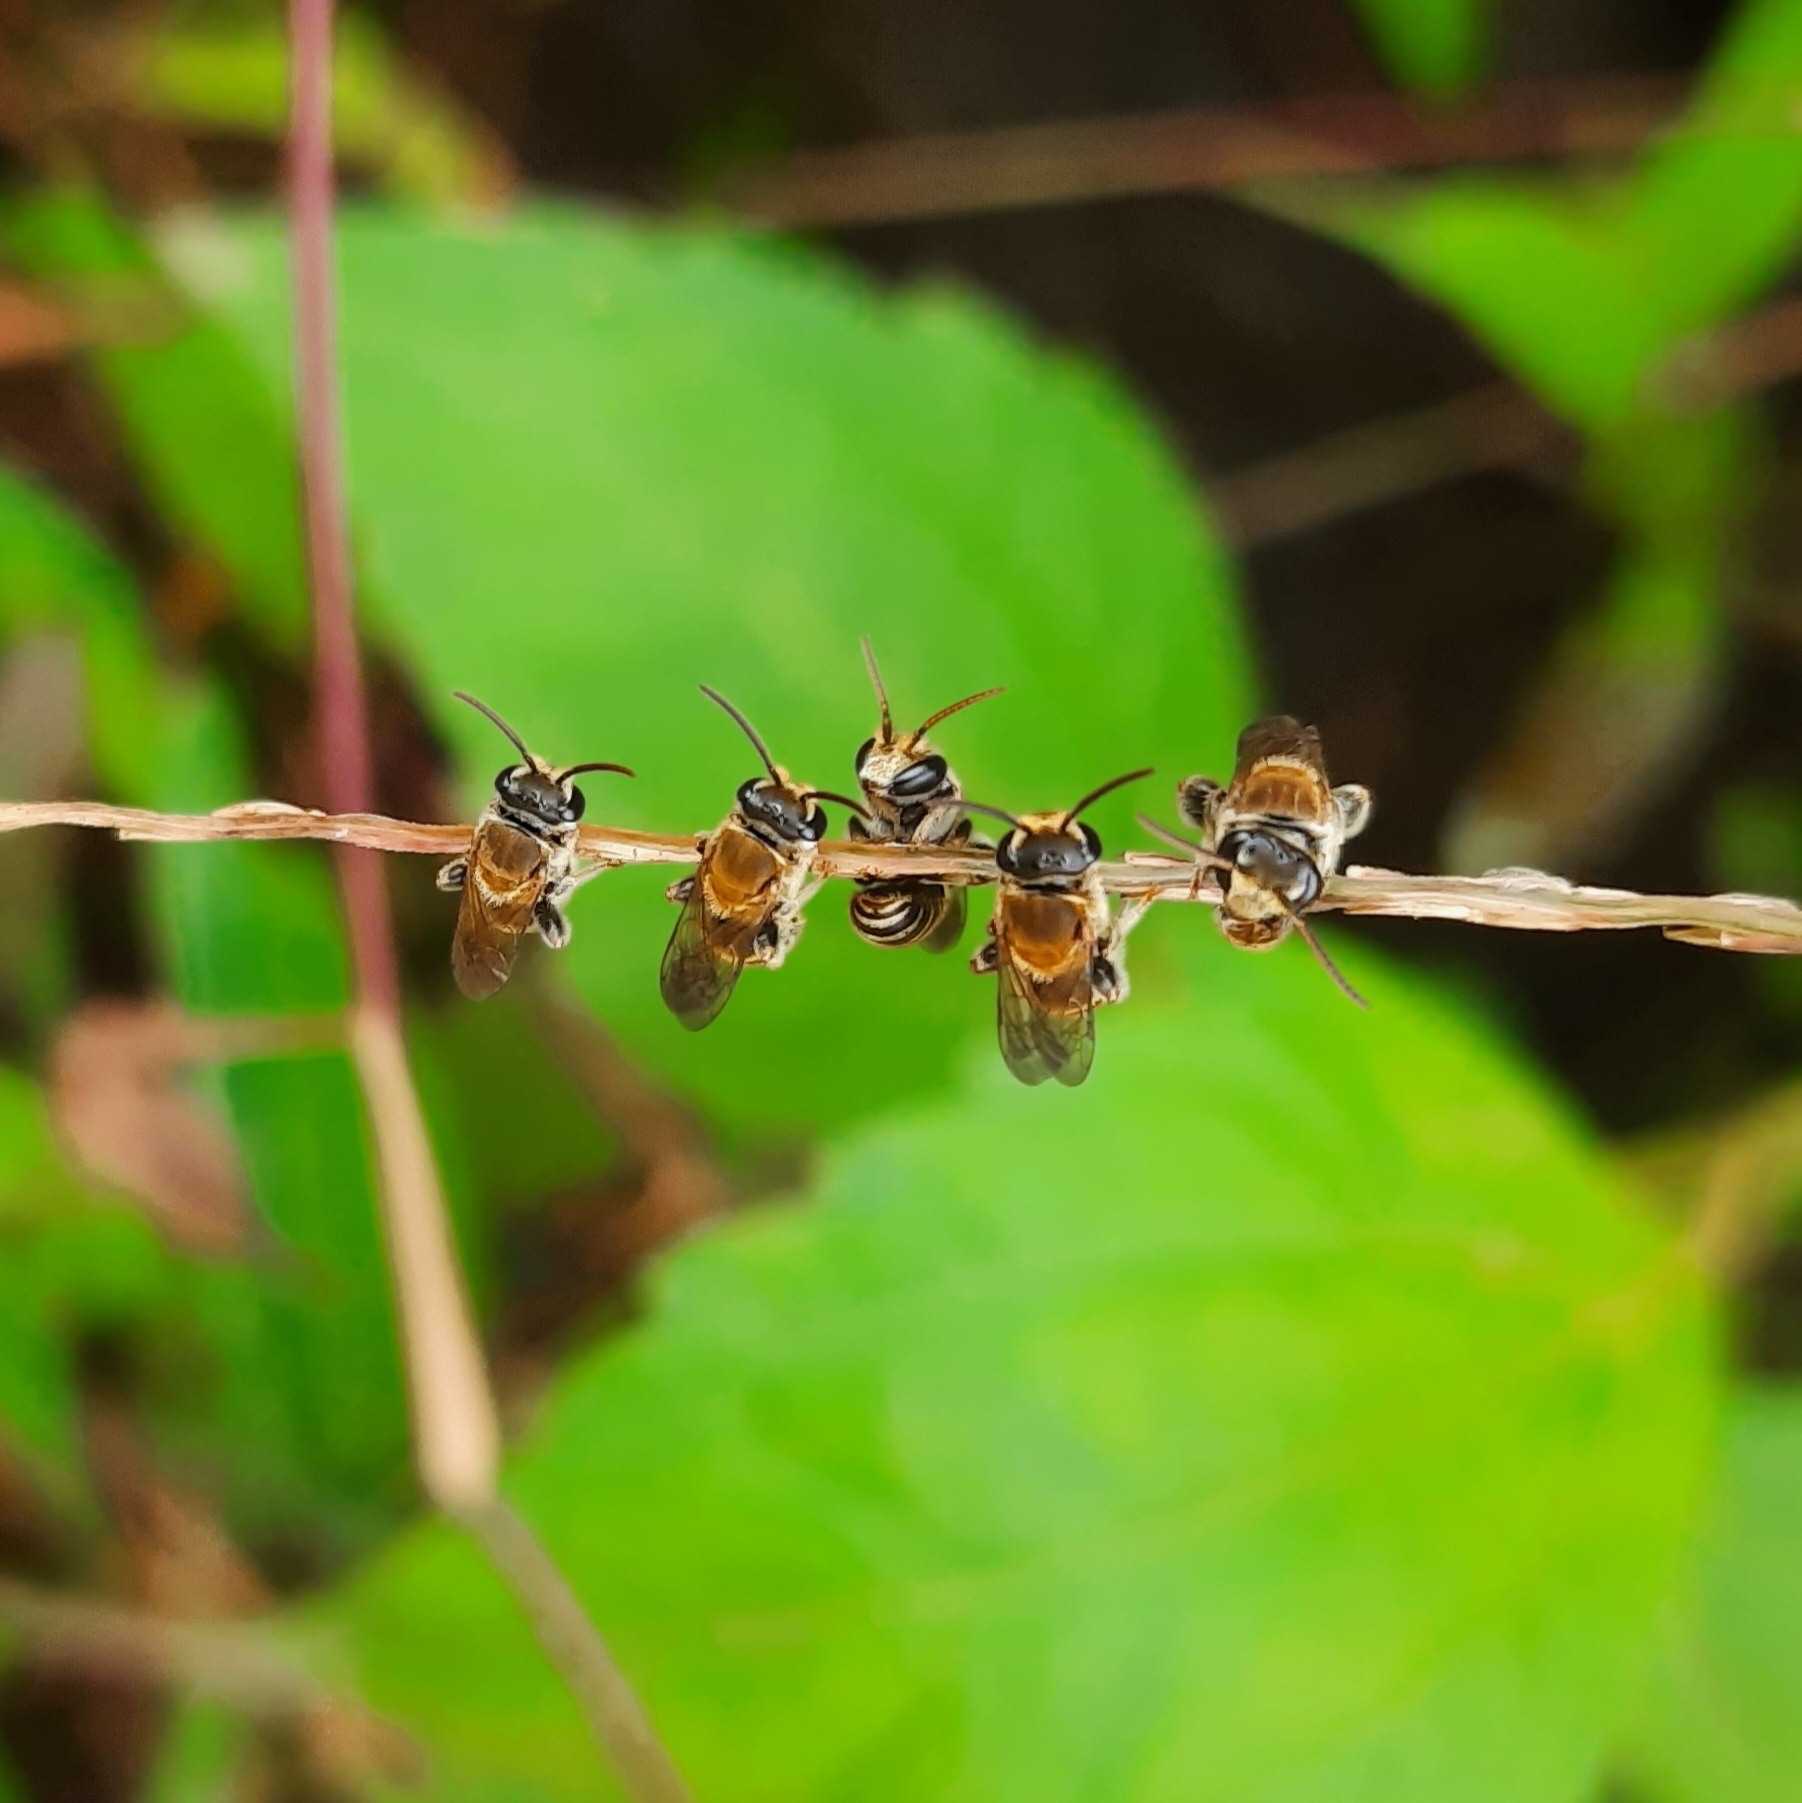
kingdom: Animalia
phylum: Arthropoda
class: Insecta
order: Hymenoptera
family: Halictidae
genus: Lipotriches
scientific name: Lipotriches
